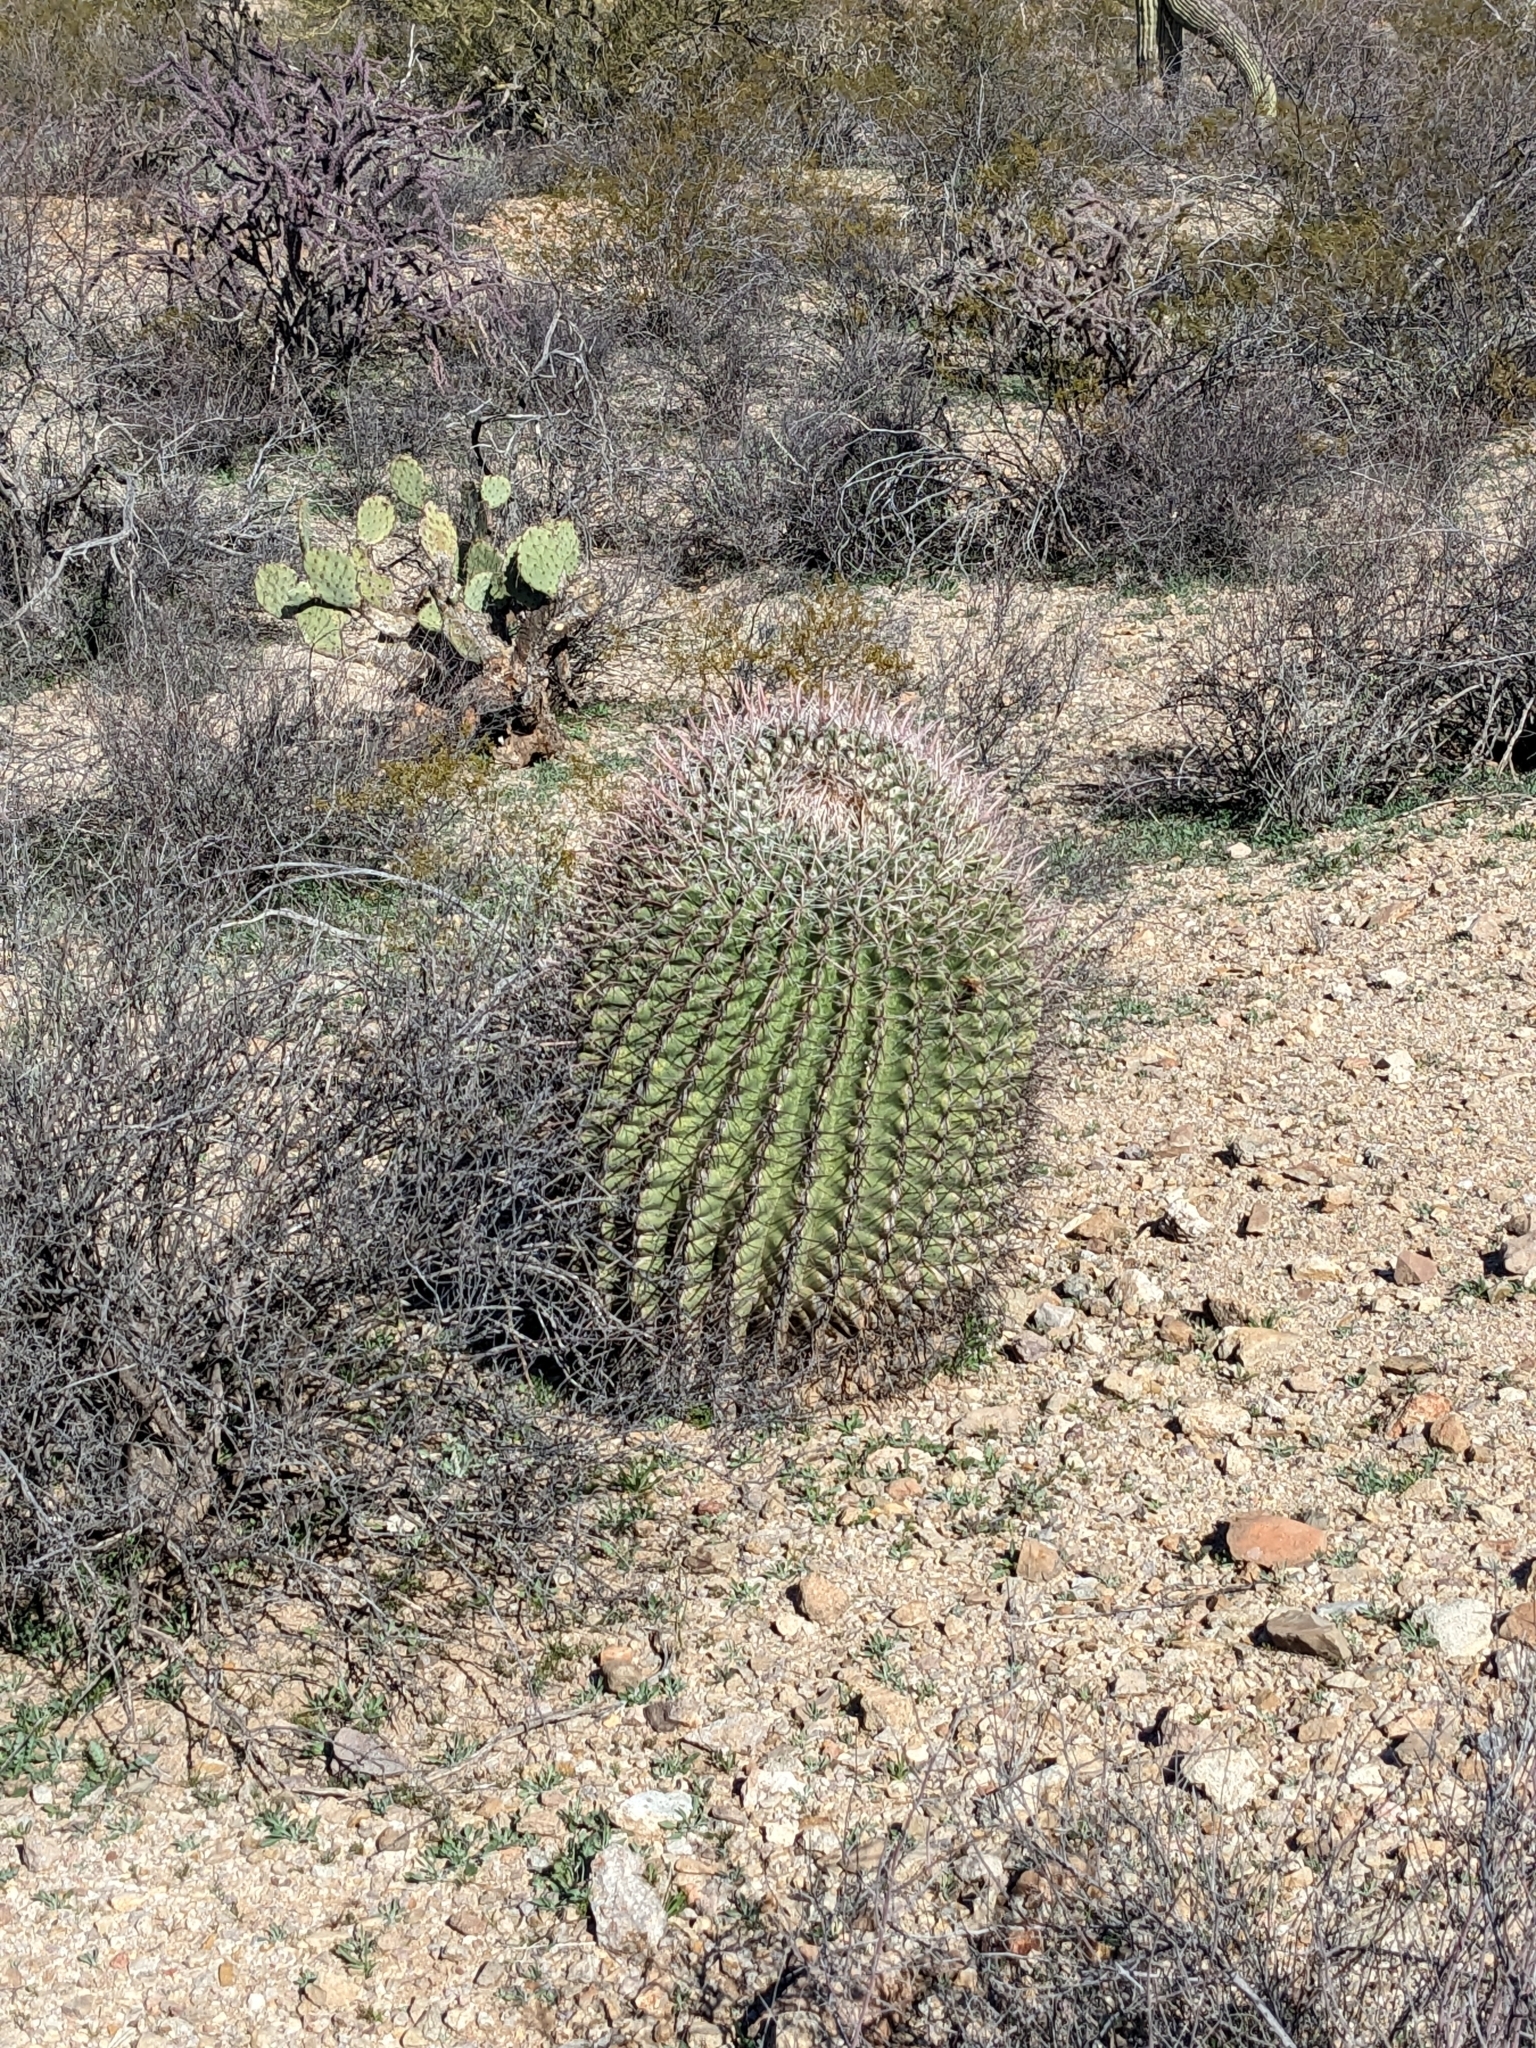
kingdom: Plantae
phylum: Tracheophyta
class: Magnoliopsida
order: Caryophyllales
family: Cactaceae
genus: Ferocactus
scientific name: Ferocactus wislizeni
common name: Candy barrel cactus
